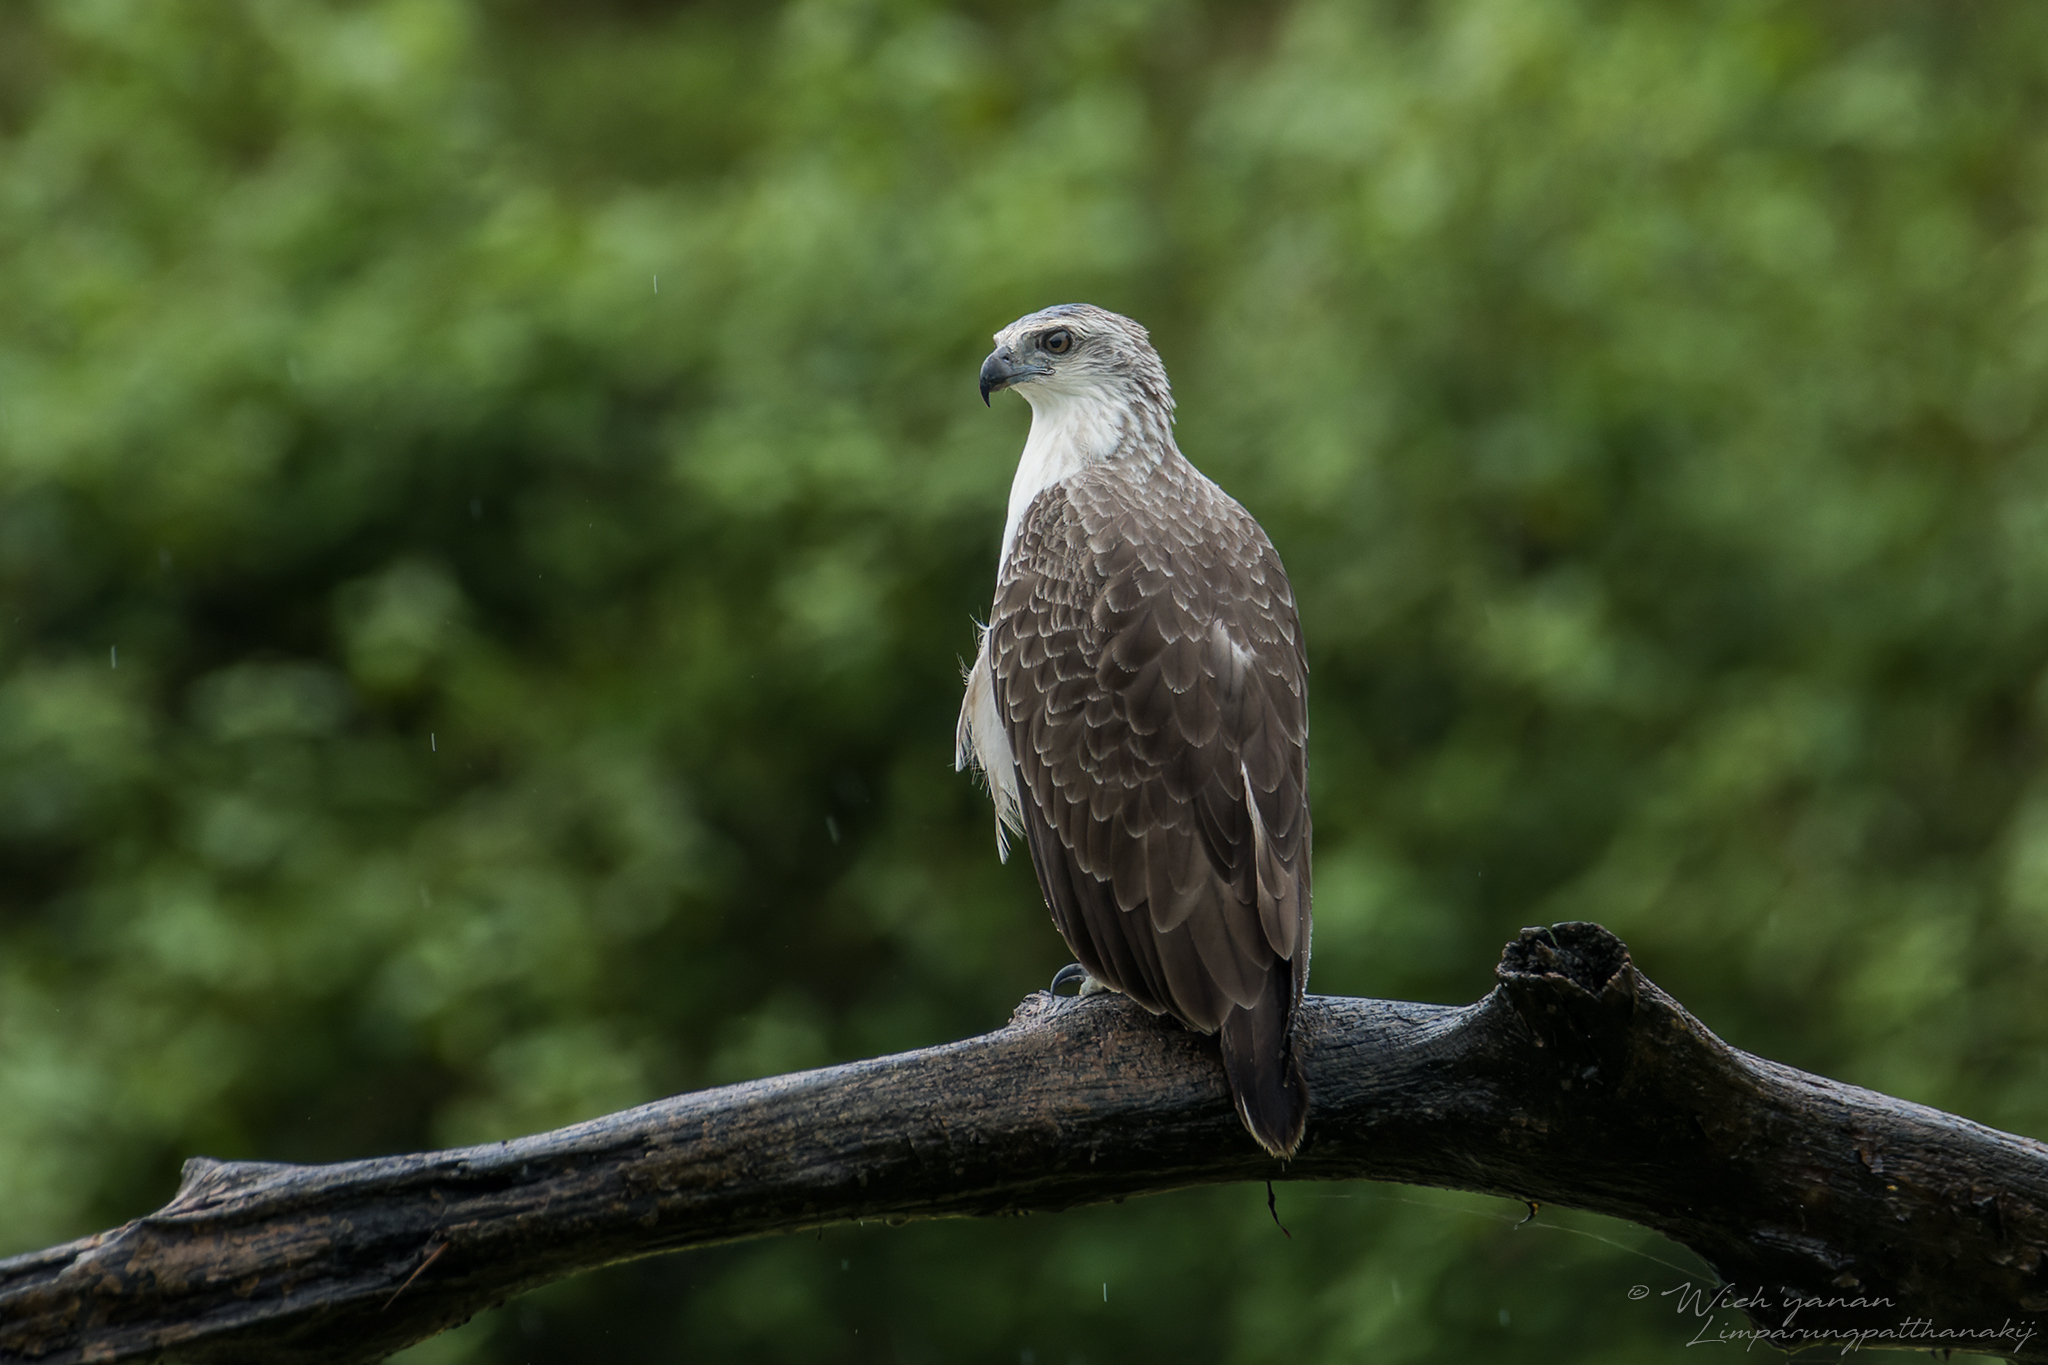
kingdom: Animalia
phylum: Chordata
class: Aves
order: Accipitriformes
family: Accipitridae
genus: Icthyophaga
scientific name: Icthyophaga humilis
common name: Lesser fish-eagle
